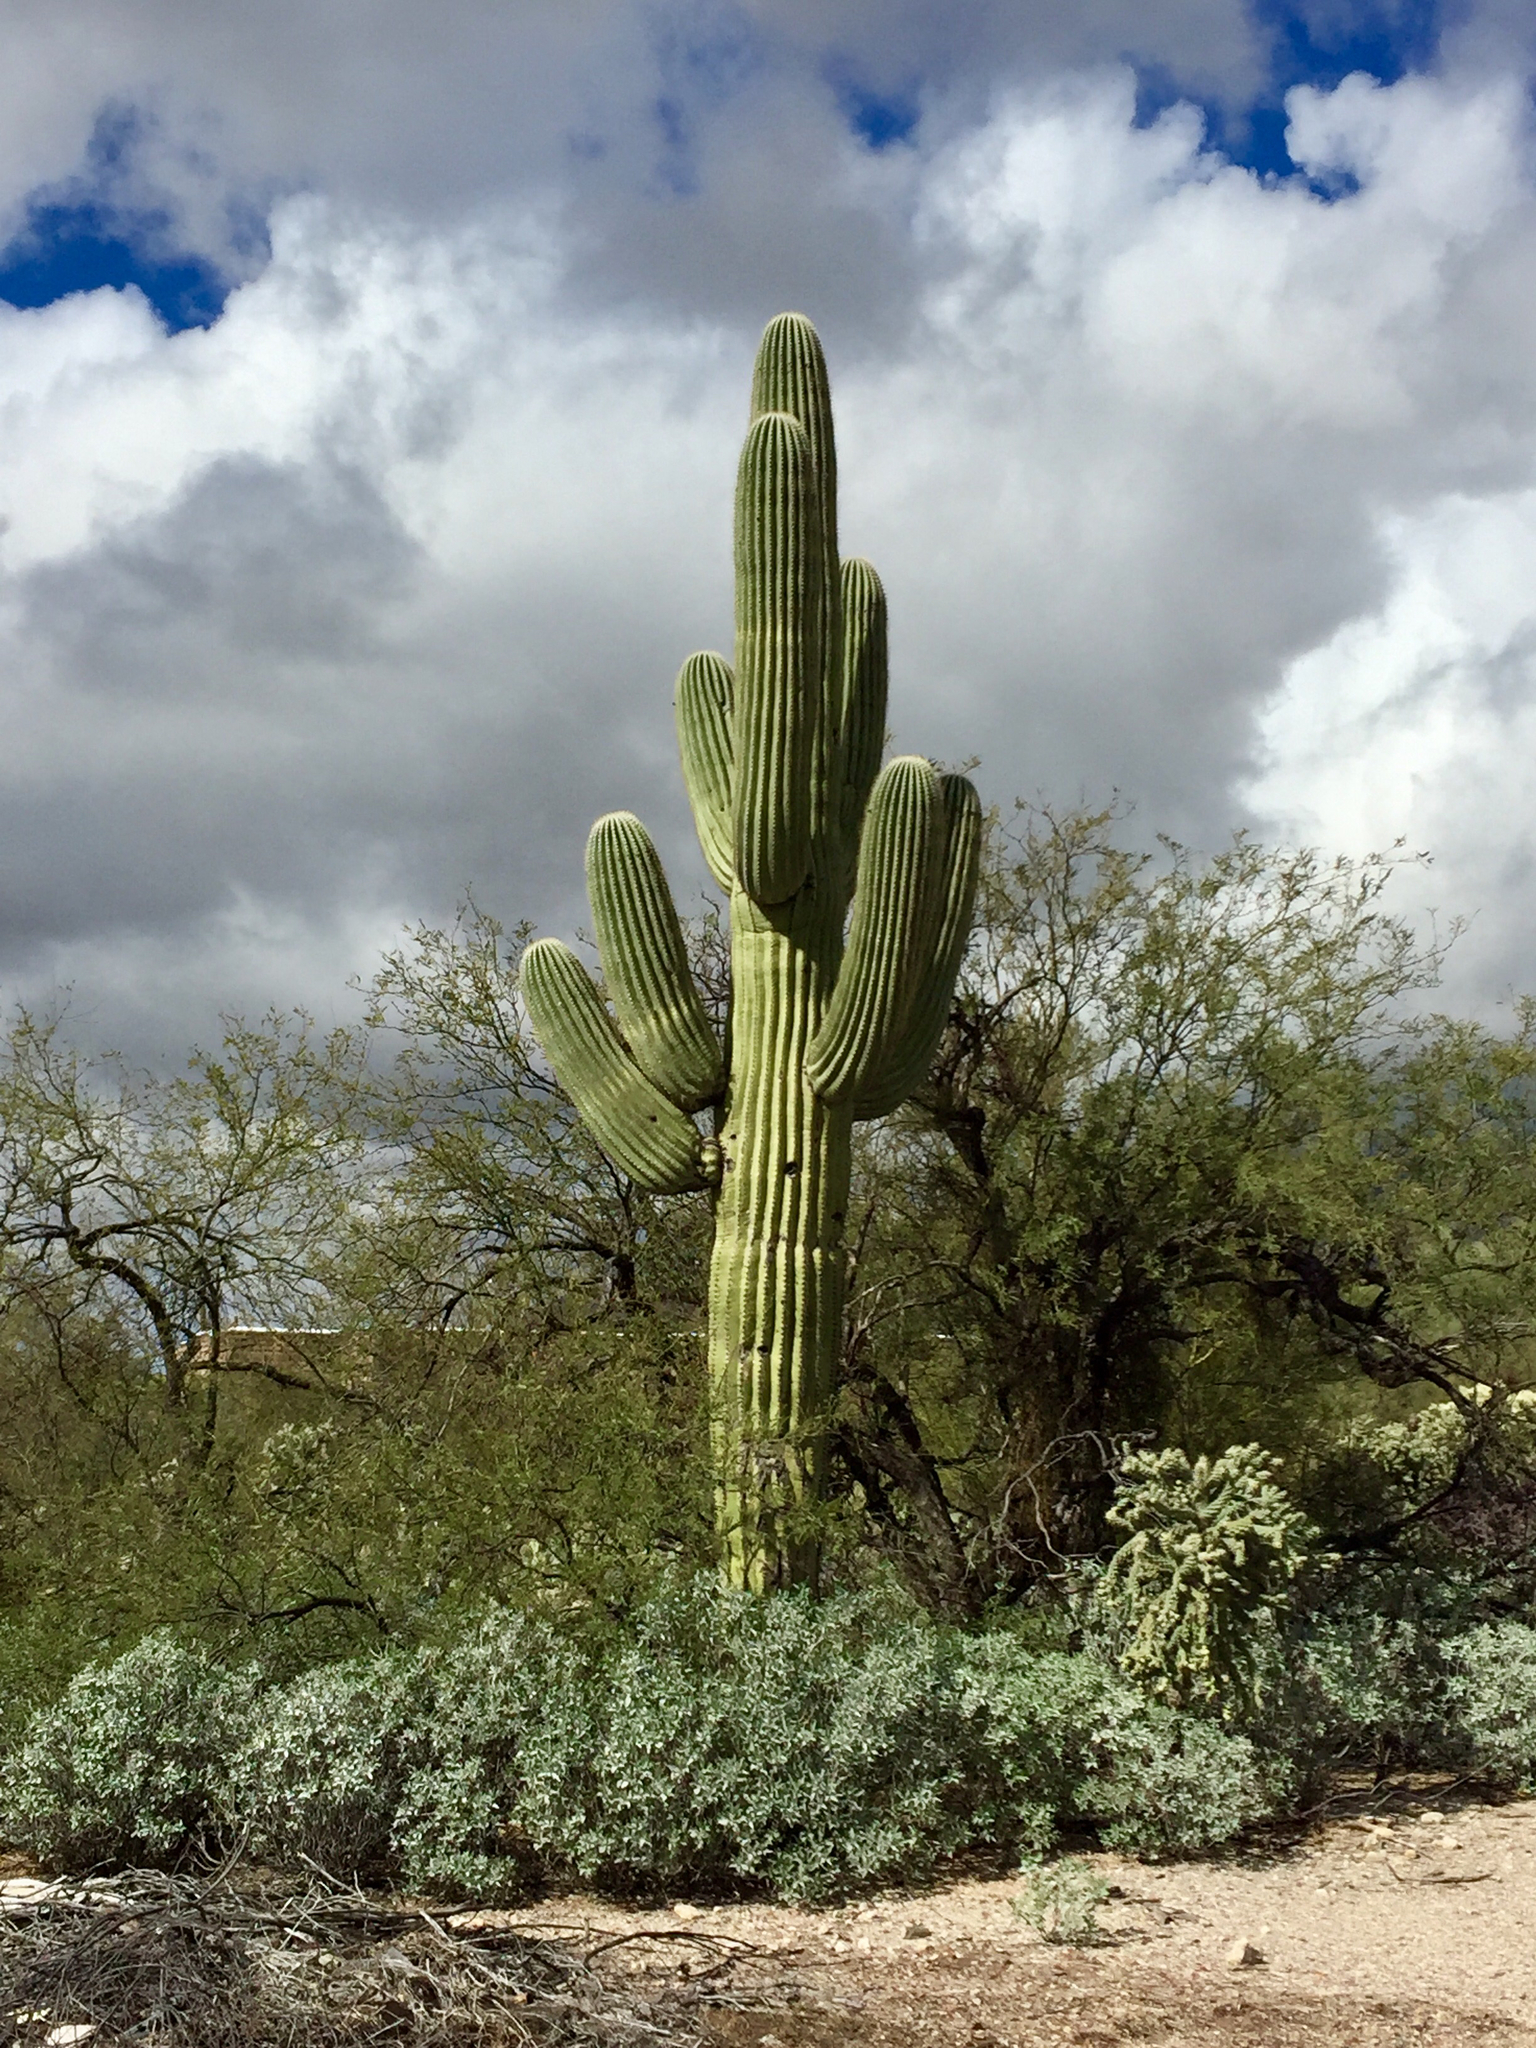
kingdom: Plantae
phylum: Tracheophyta
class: Magnoliopsida
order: Caryophyllales
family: Cactaceae
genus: Carnegiea
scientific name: Carnegiea gigantea
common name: Saguaro
